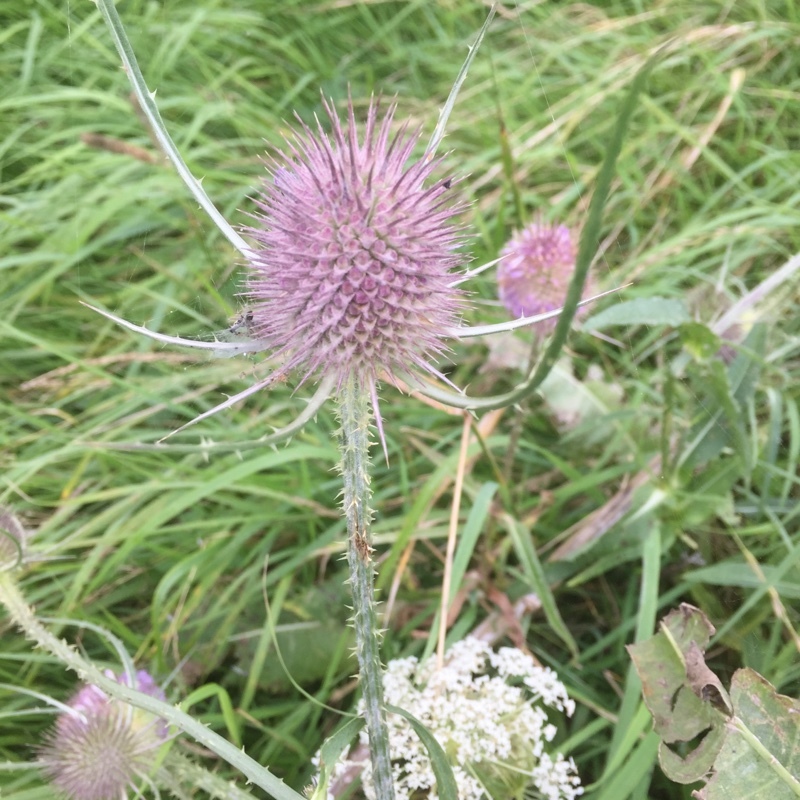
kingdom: Plantae
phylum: Tracheophyta
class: Magnoliopsida
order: Dipsacales
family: Caprifoliaceae
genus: Dipsacus
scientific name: Dipsacus fullonum
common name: Teasel
